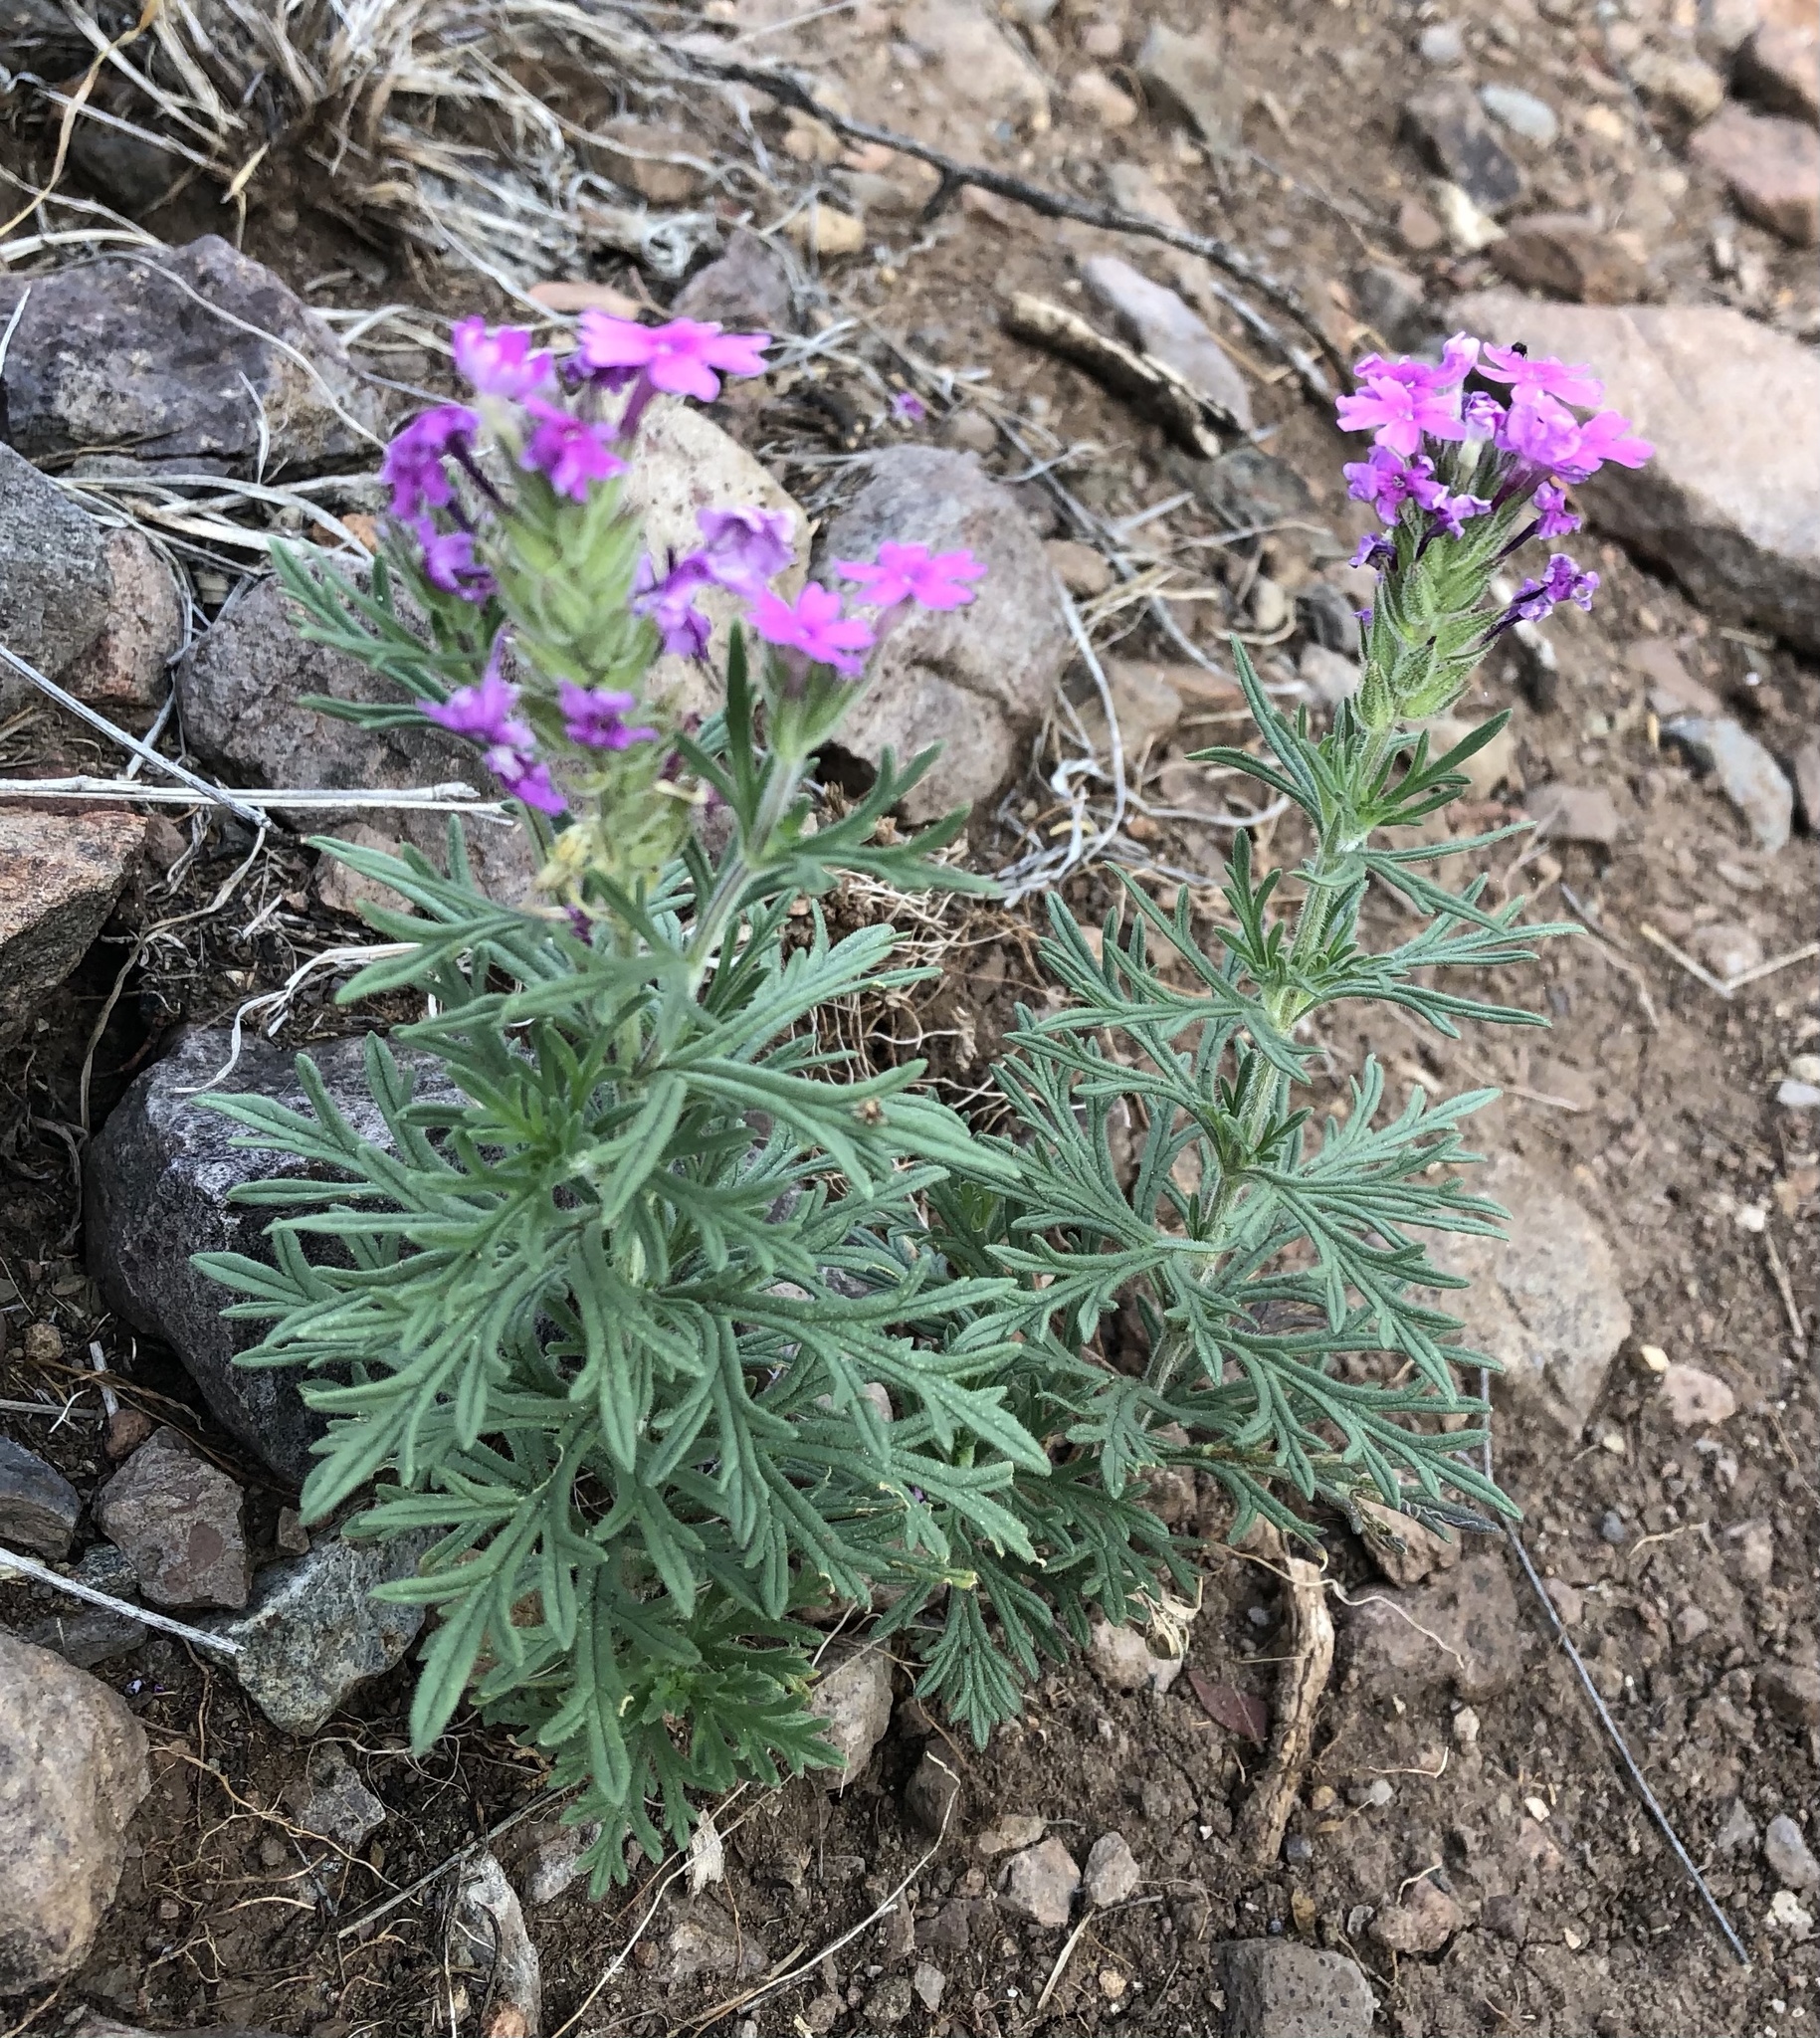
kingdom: Plantae
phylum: Tracheophyta
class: Magnoliopsida
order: Lamiales
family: Verbenaceae
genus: Verbena
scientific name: Verbena bipinnatifida
